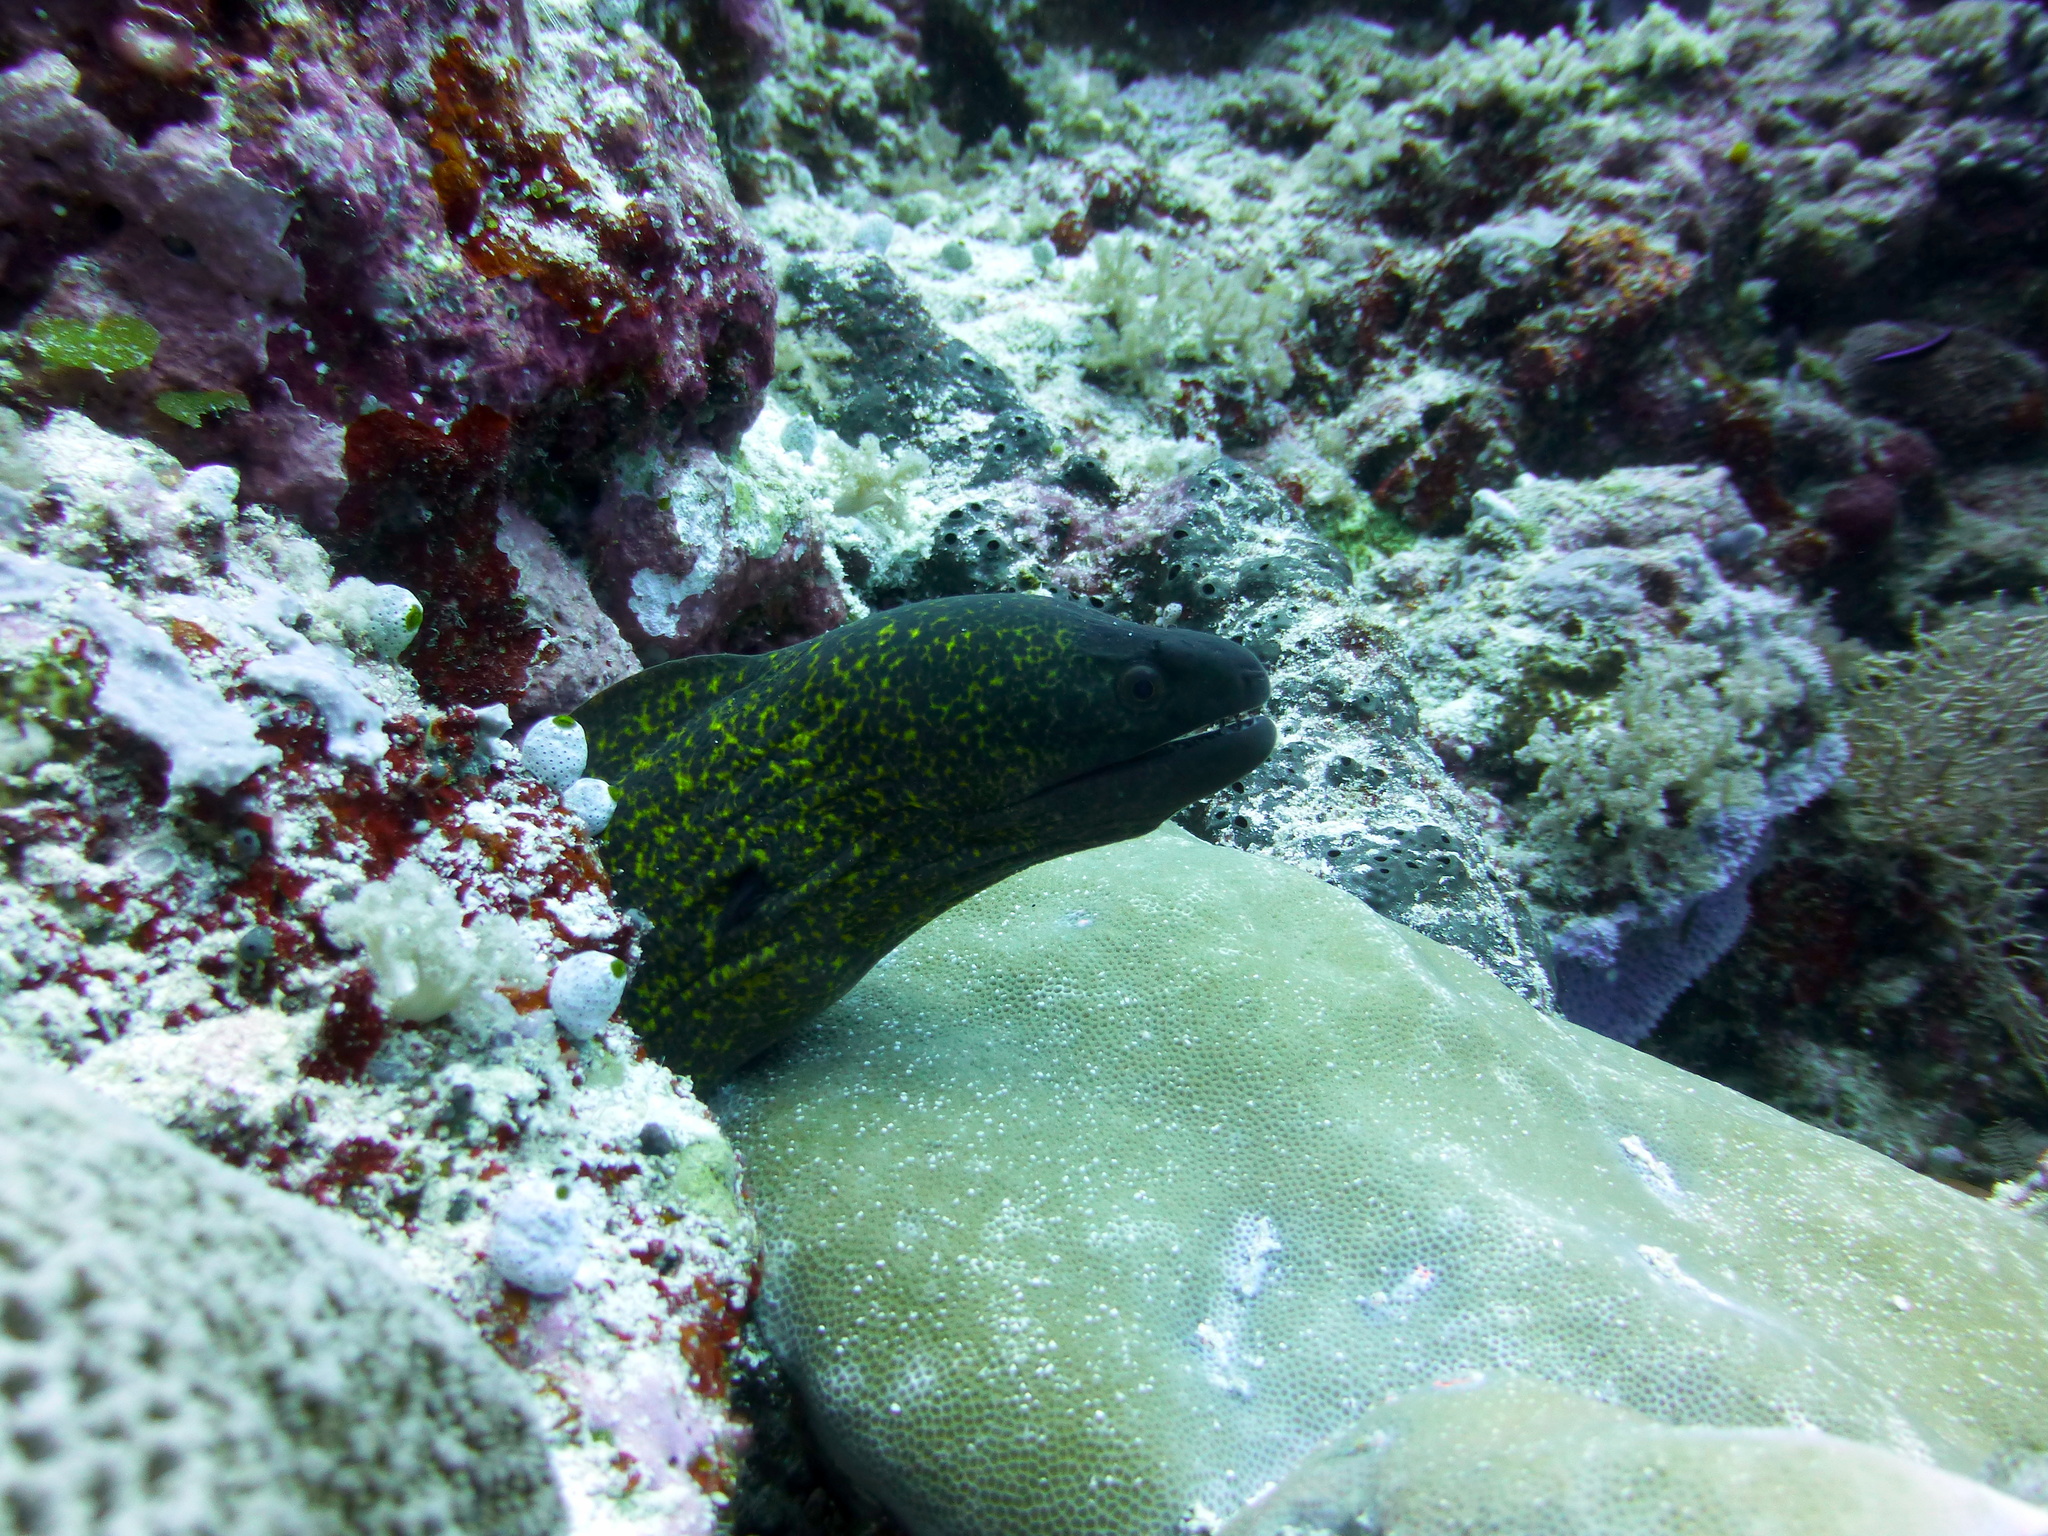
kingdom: Animalia
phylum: Chordata
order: Anguilliformes
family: Muraenidae
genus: Gymnothorax
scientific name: Gymnothorax flavimarginatus
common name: Yellow-edged moray
